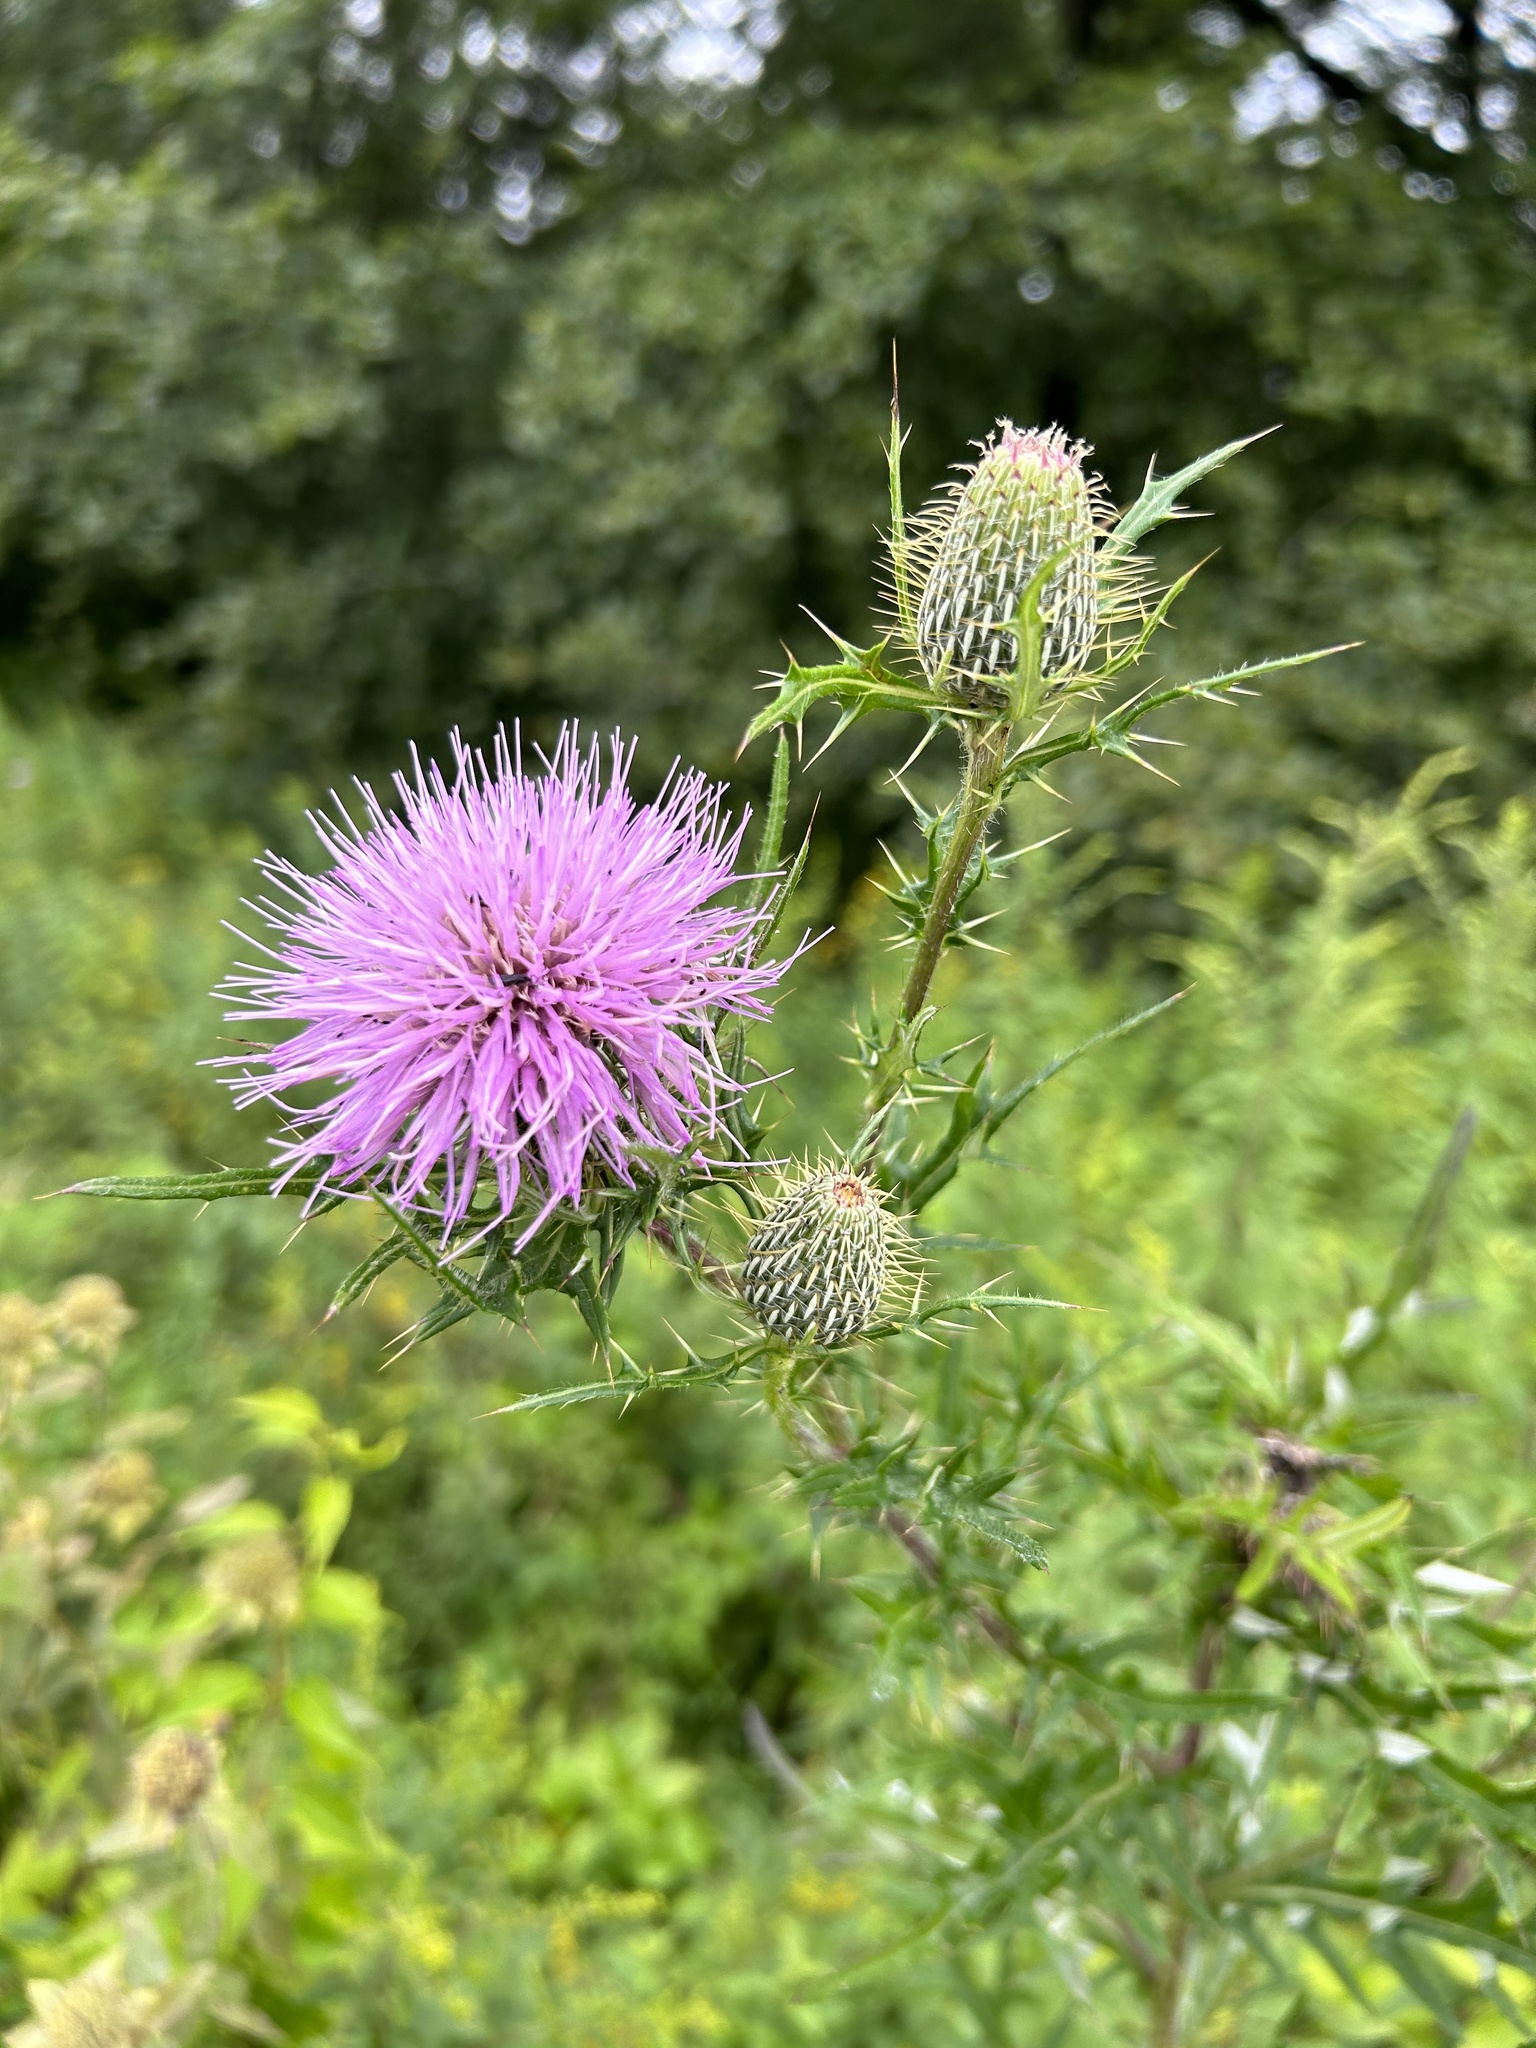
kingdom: Plantae
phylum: Tracheophyta
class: Magnoliopsida
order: Asterales
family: Asteraceae
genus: Cirsium
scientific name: Cirsium discolor
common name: Field thistle
